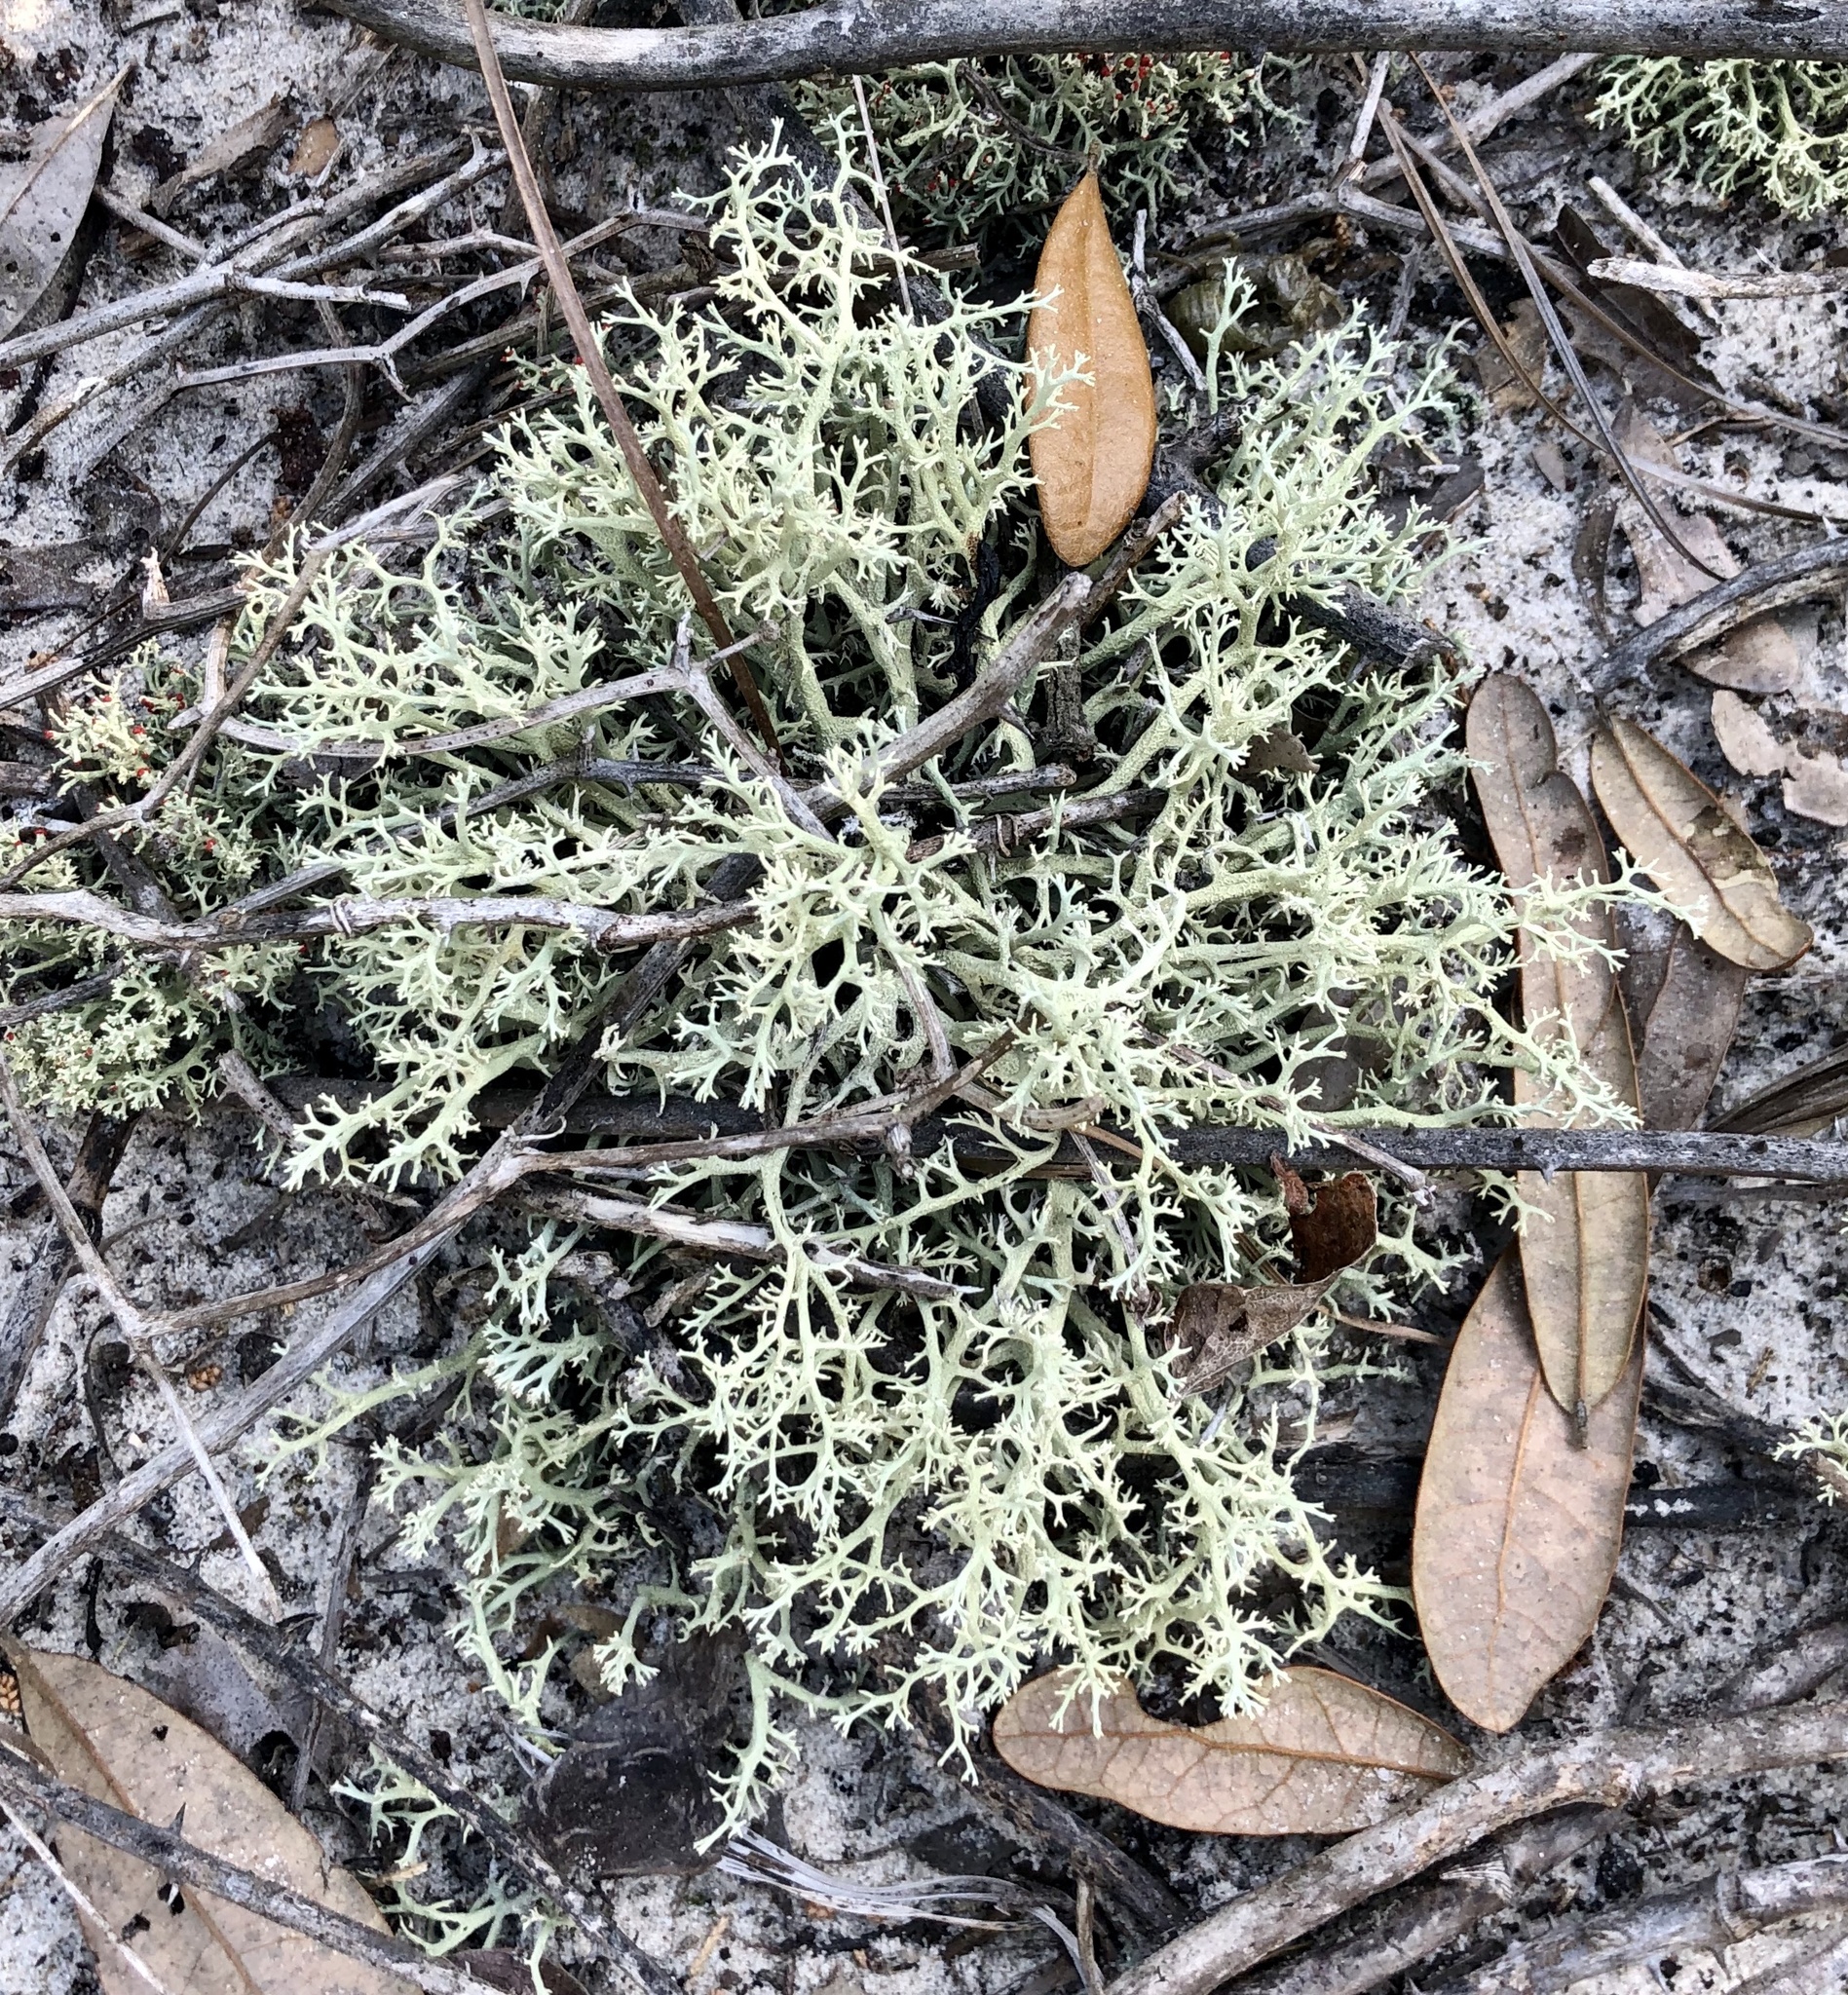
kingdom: Fungi
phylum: Ascomycota
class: Lecanoromycetes
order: Lecanorales
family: Cladoniaceae
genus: Cladonia
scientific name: Cladonia leporina
